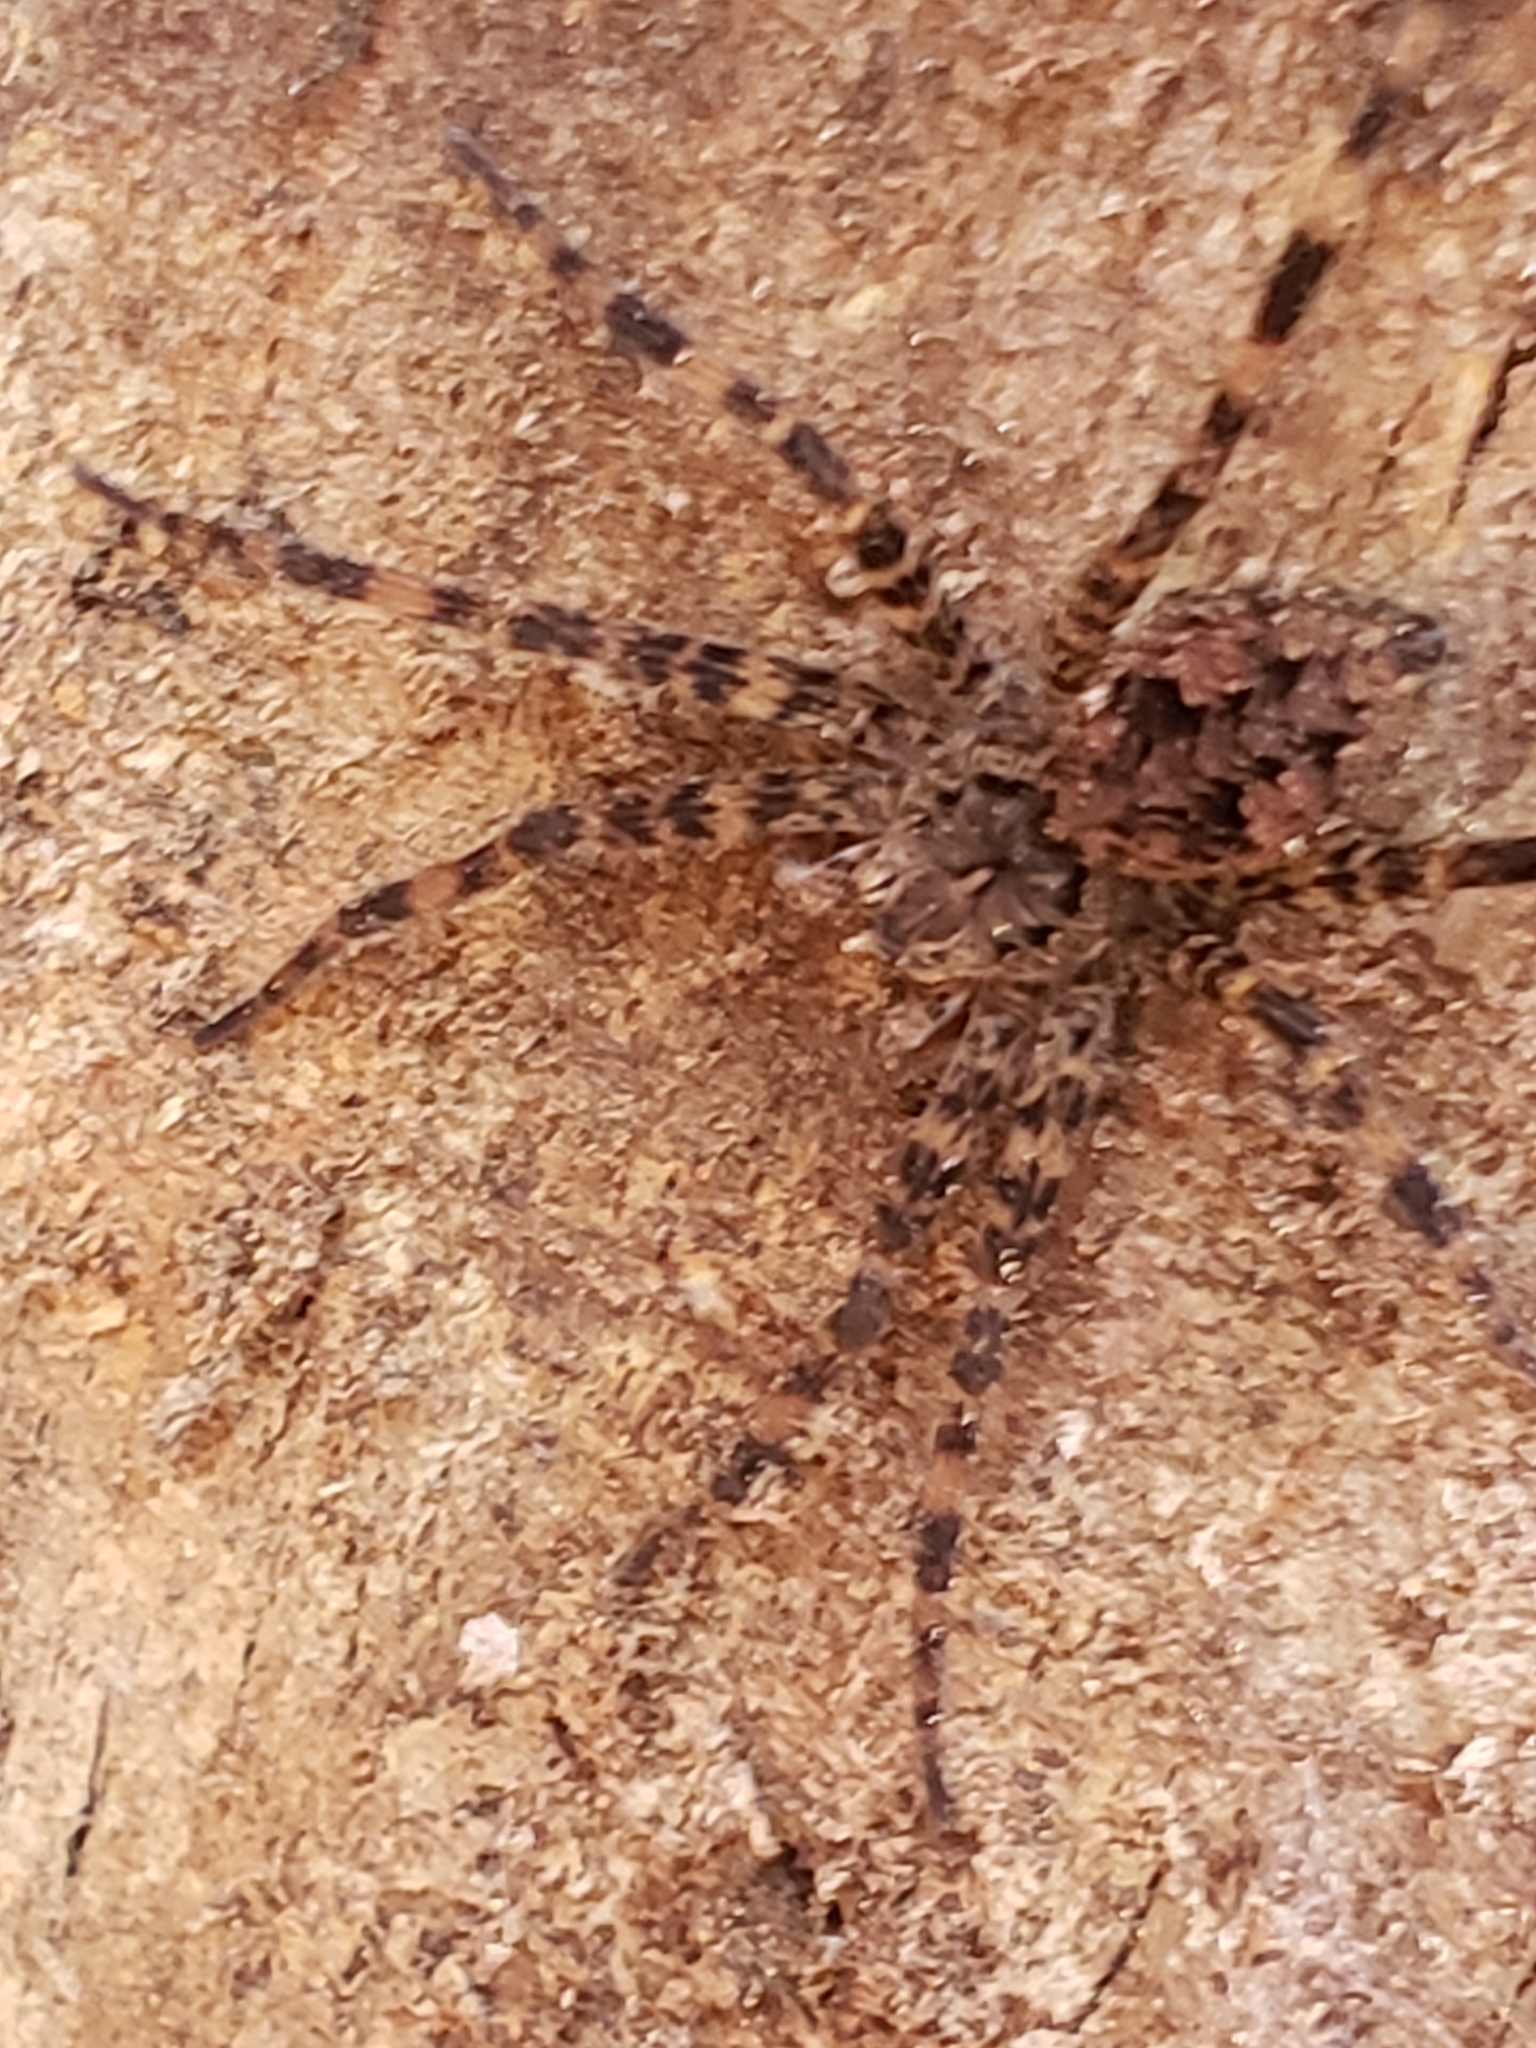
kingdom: Animalia
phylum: Arthropoda
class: Arachnida
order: Araneae
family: Pisauridae
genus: Dolomedes
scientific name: Dolomedes tenebrosus
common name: Dark fishing spider
